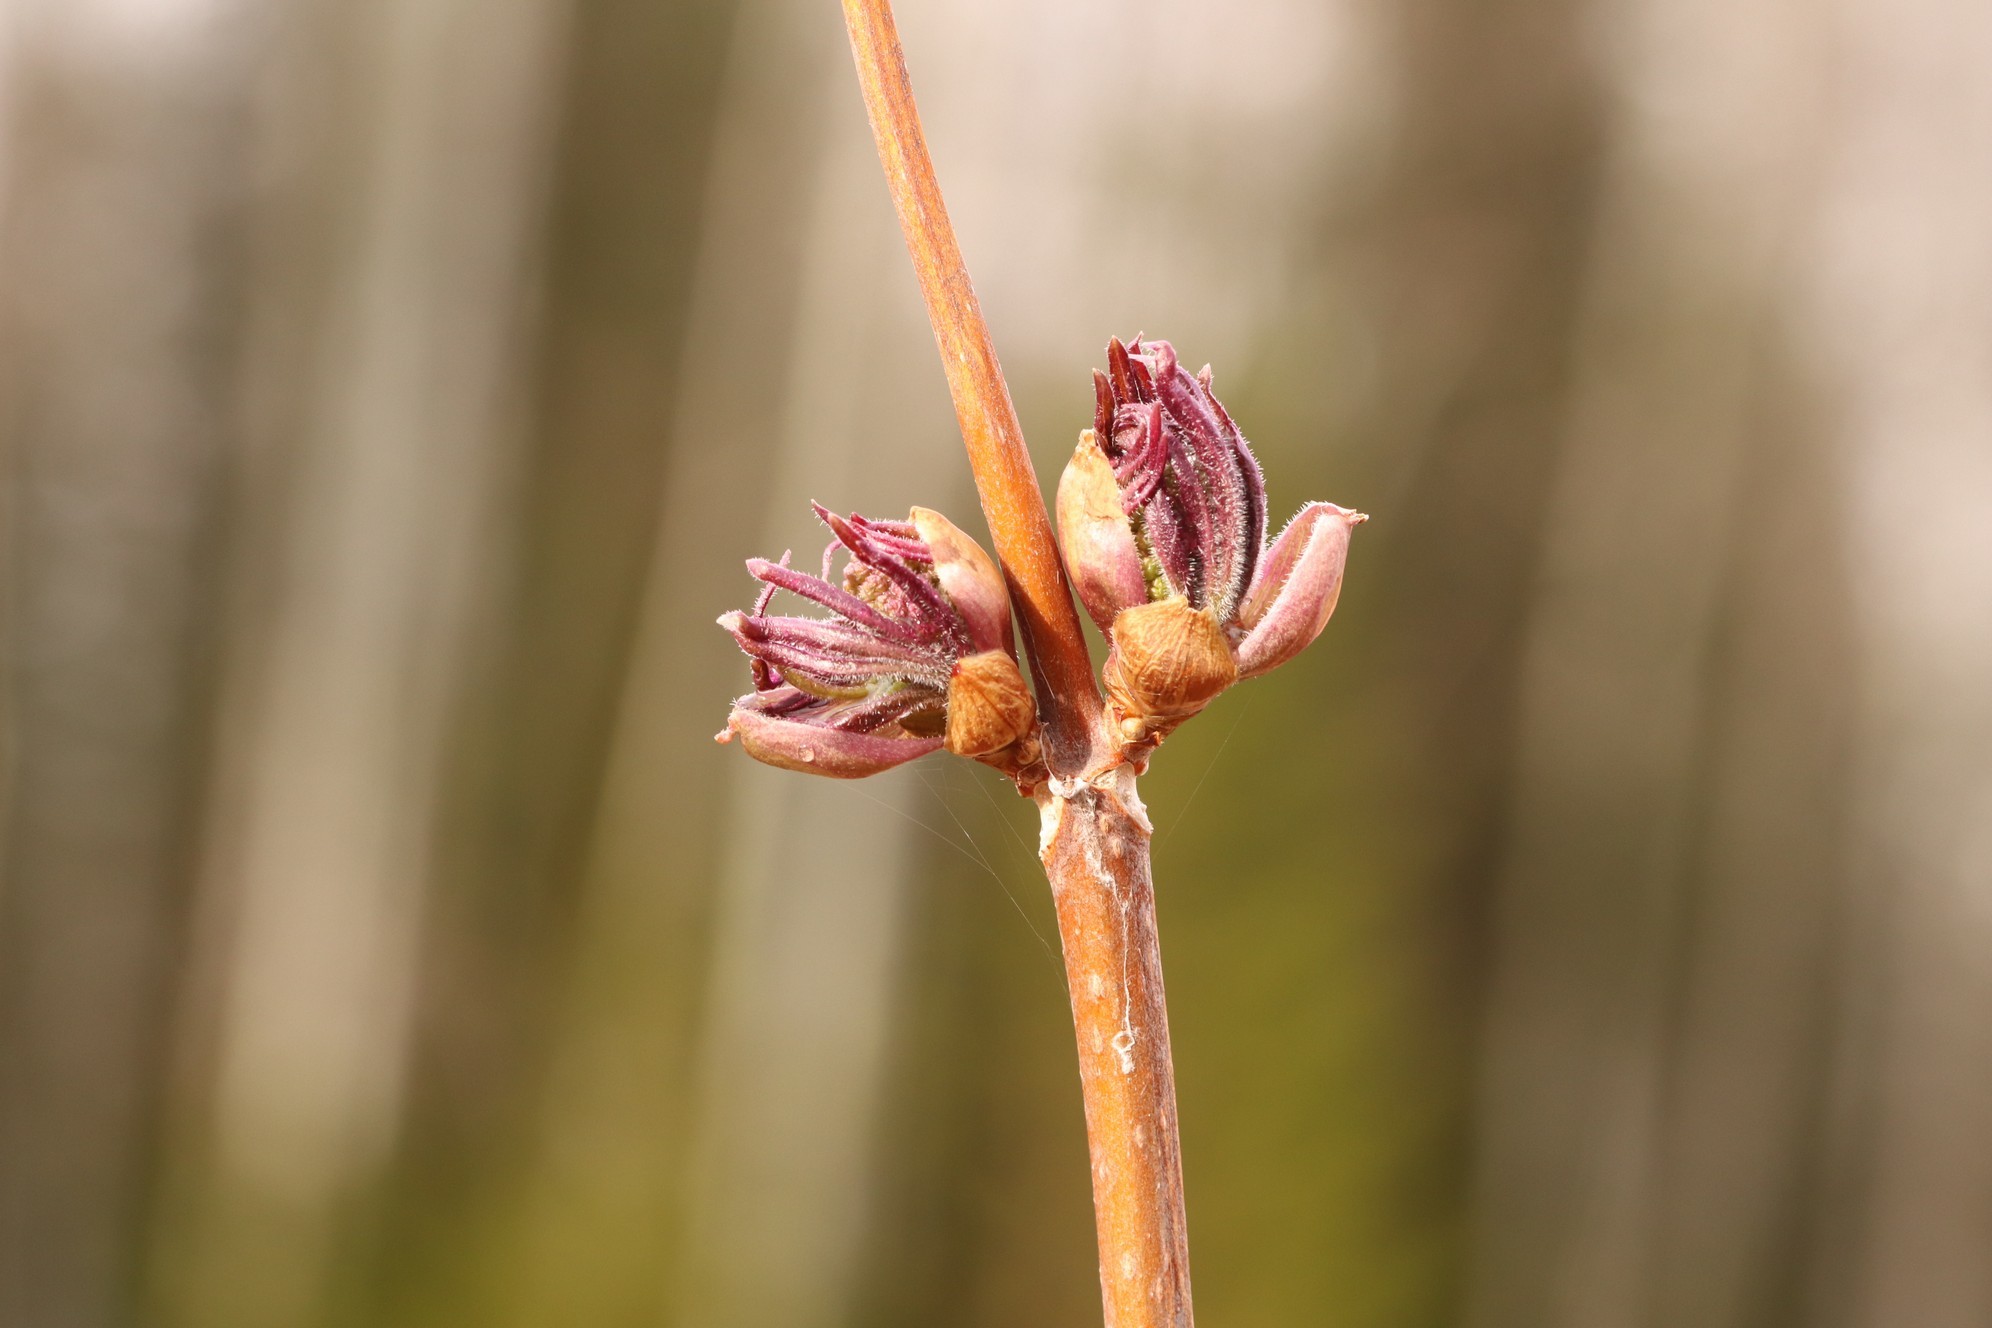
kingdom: Plantae
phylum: Tracheophyta
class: Magnoliopsida
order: Dipsacales
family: Viburnaceae
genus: Sambucus
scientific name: Sambucus sibirica
